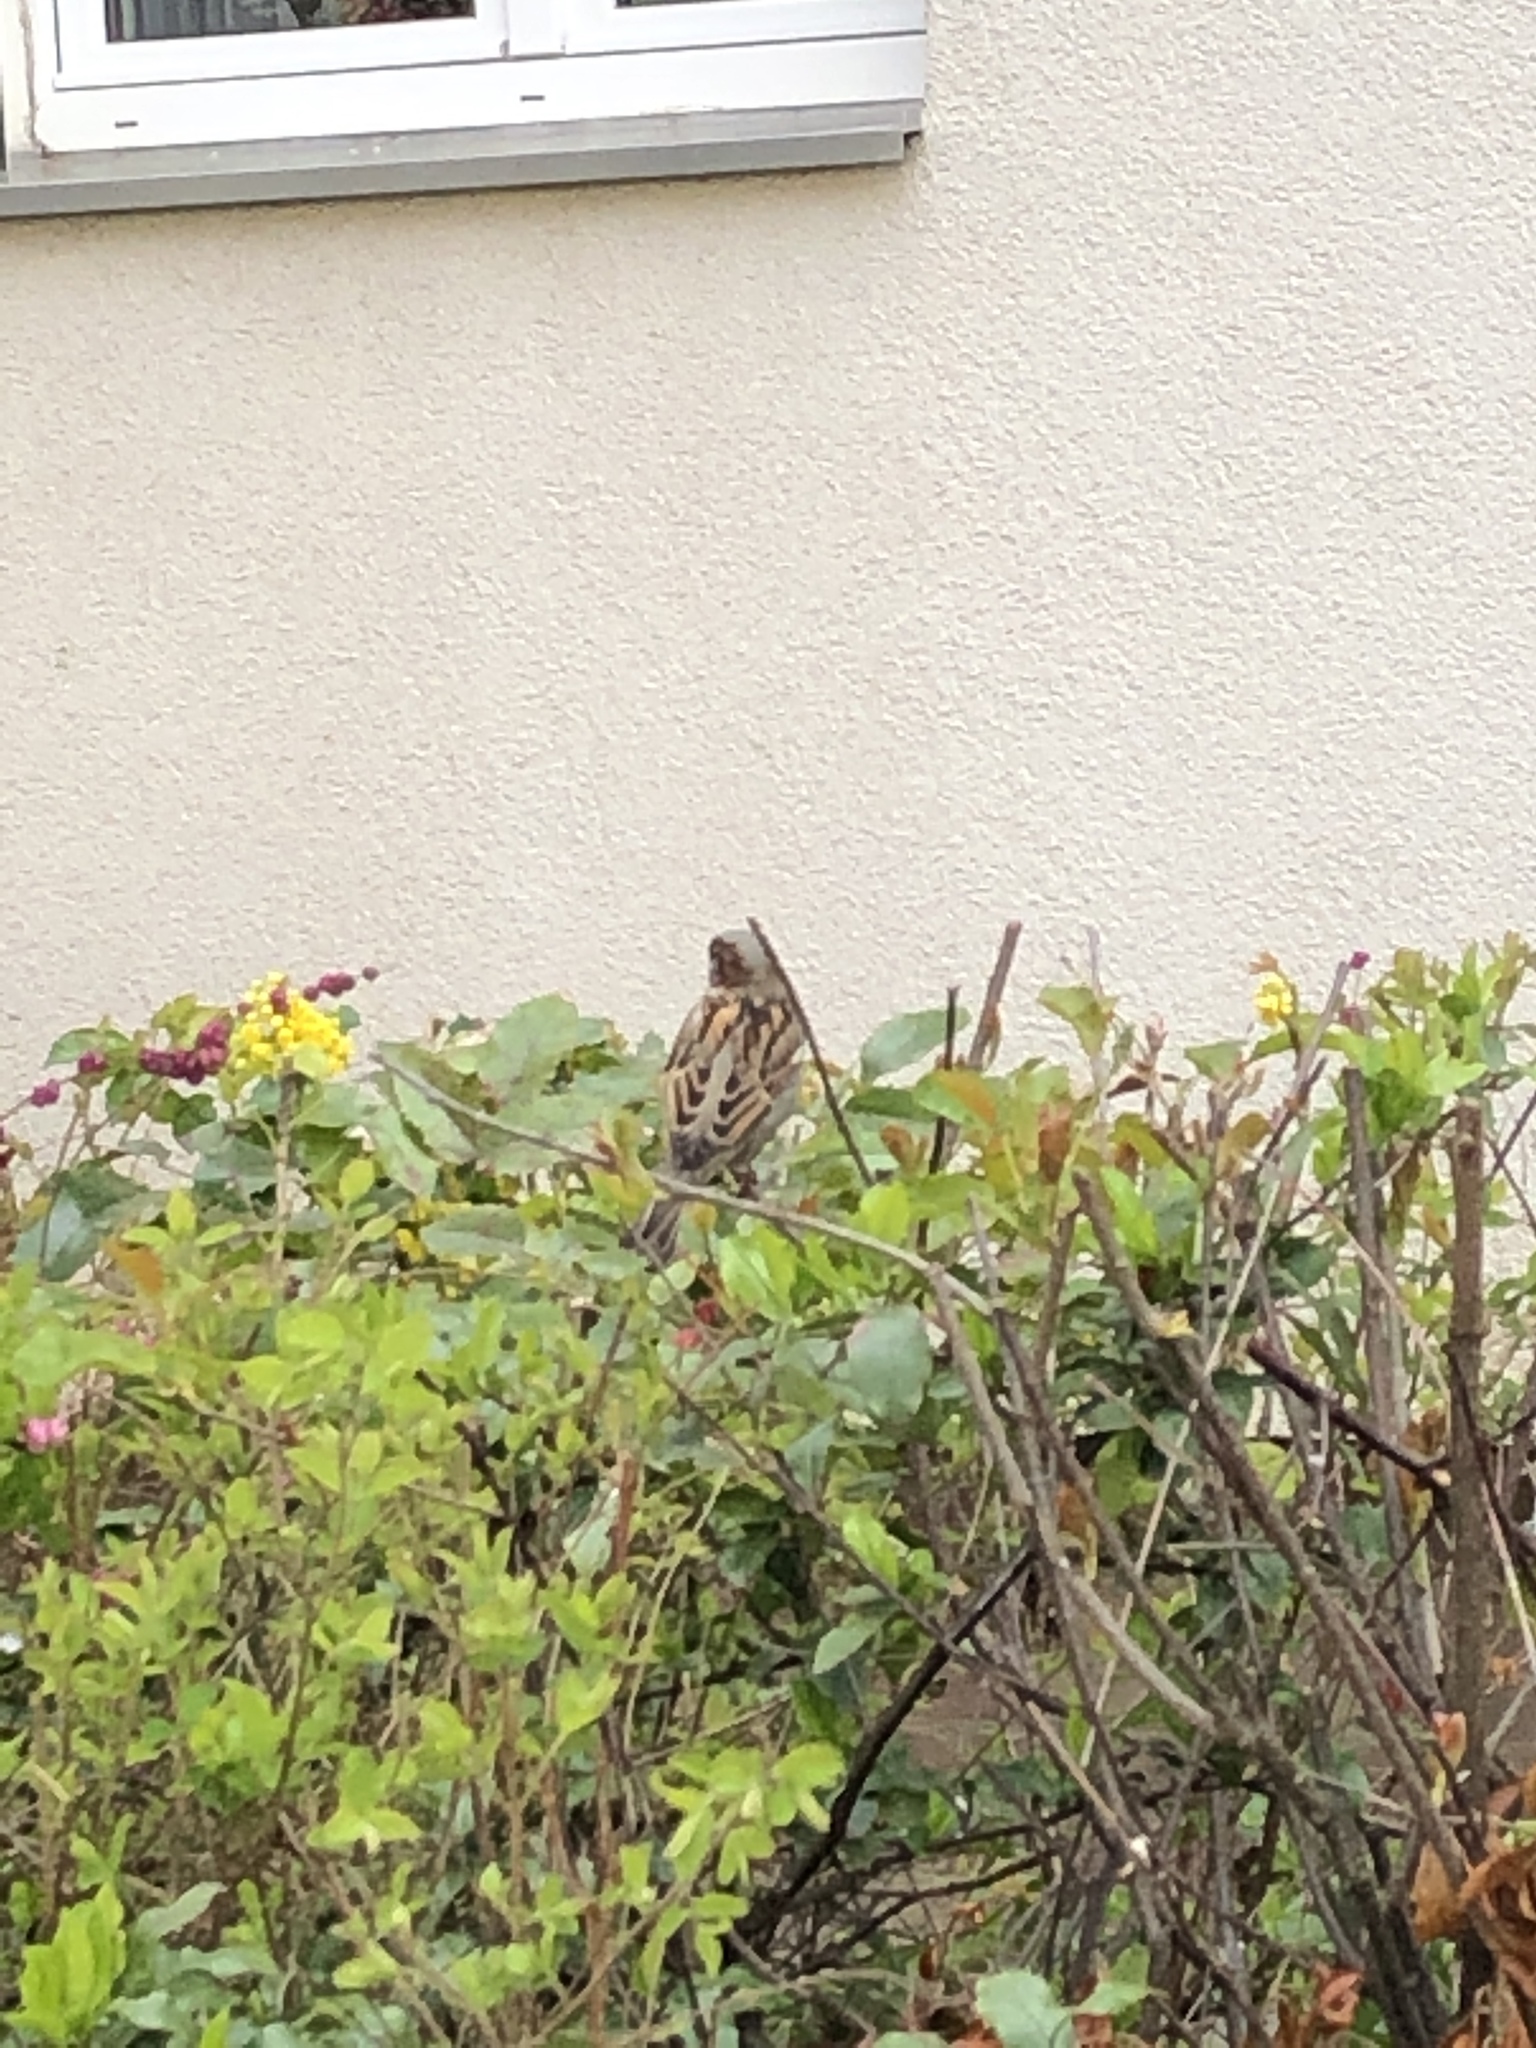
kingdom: Animalia
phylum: Chordata
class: Aves
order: Passeriformes
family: Passeridae
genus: Passer
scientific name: Passer domesticus
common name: House sparrow
